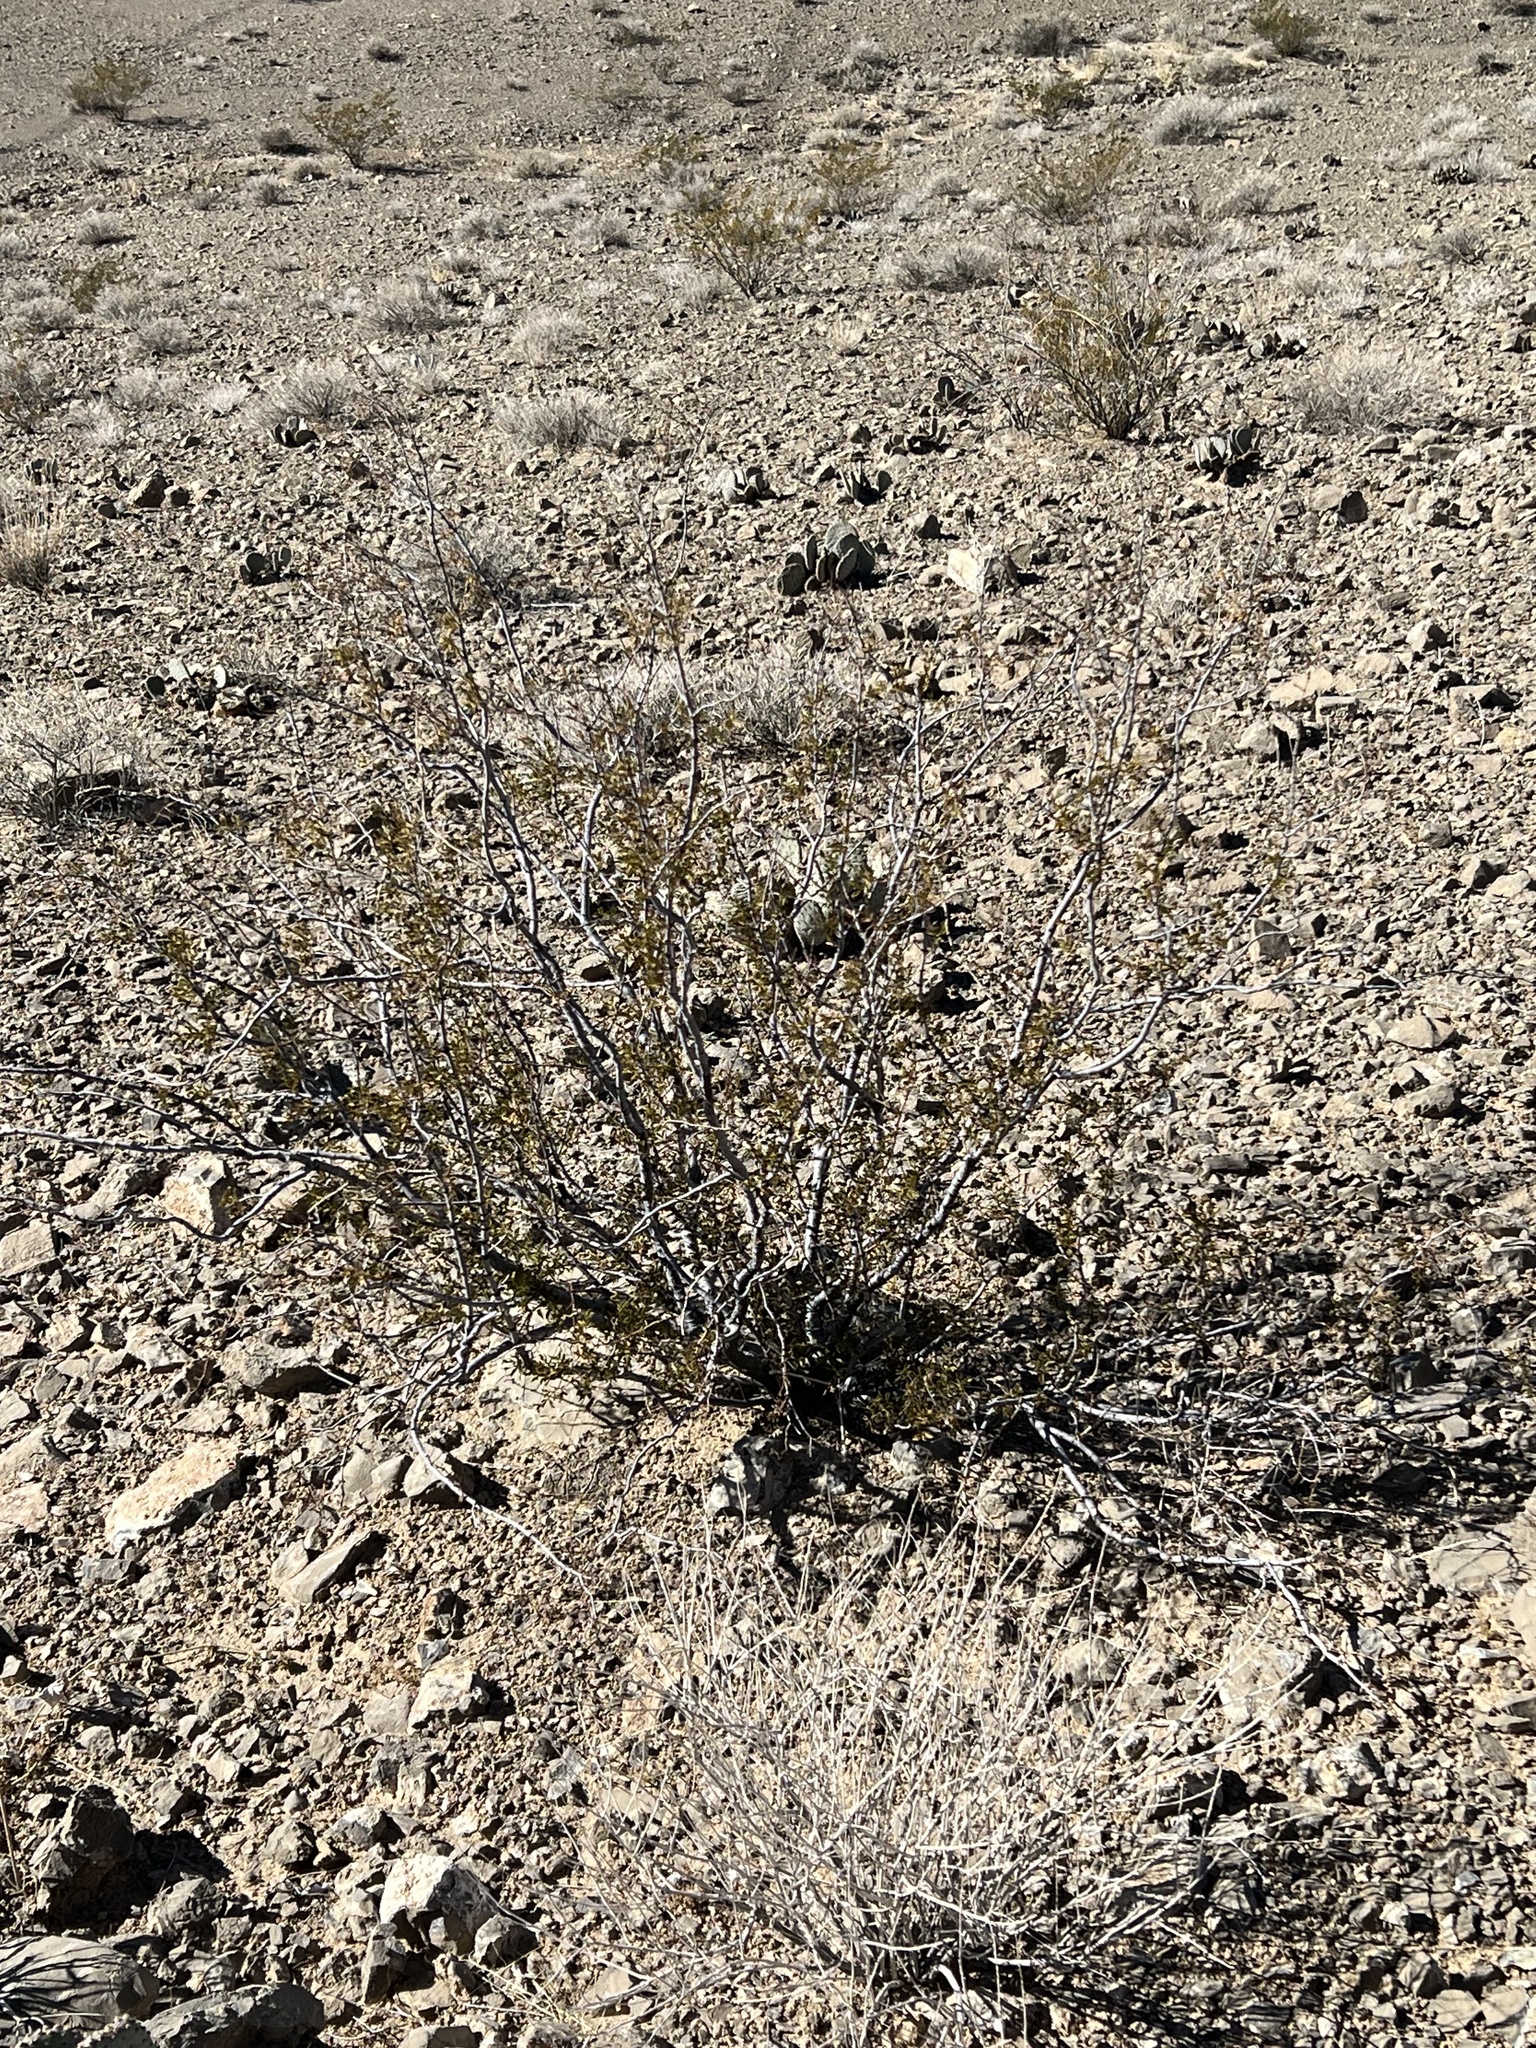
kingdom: Plantae
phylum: Tracheophyta
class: Magnoliopsida
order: Zygophyllales
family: Zygophyllaceae
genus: Larrea
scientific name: Larrea tridentata
